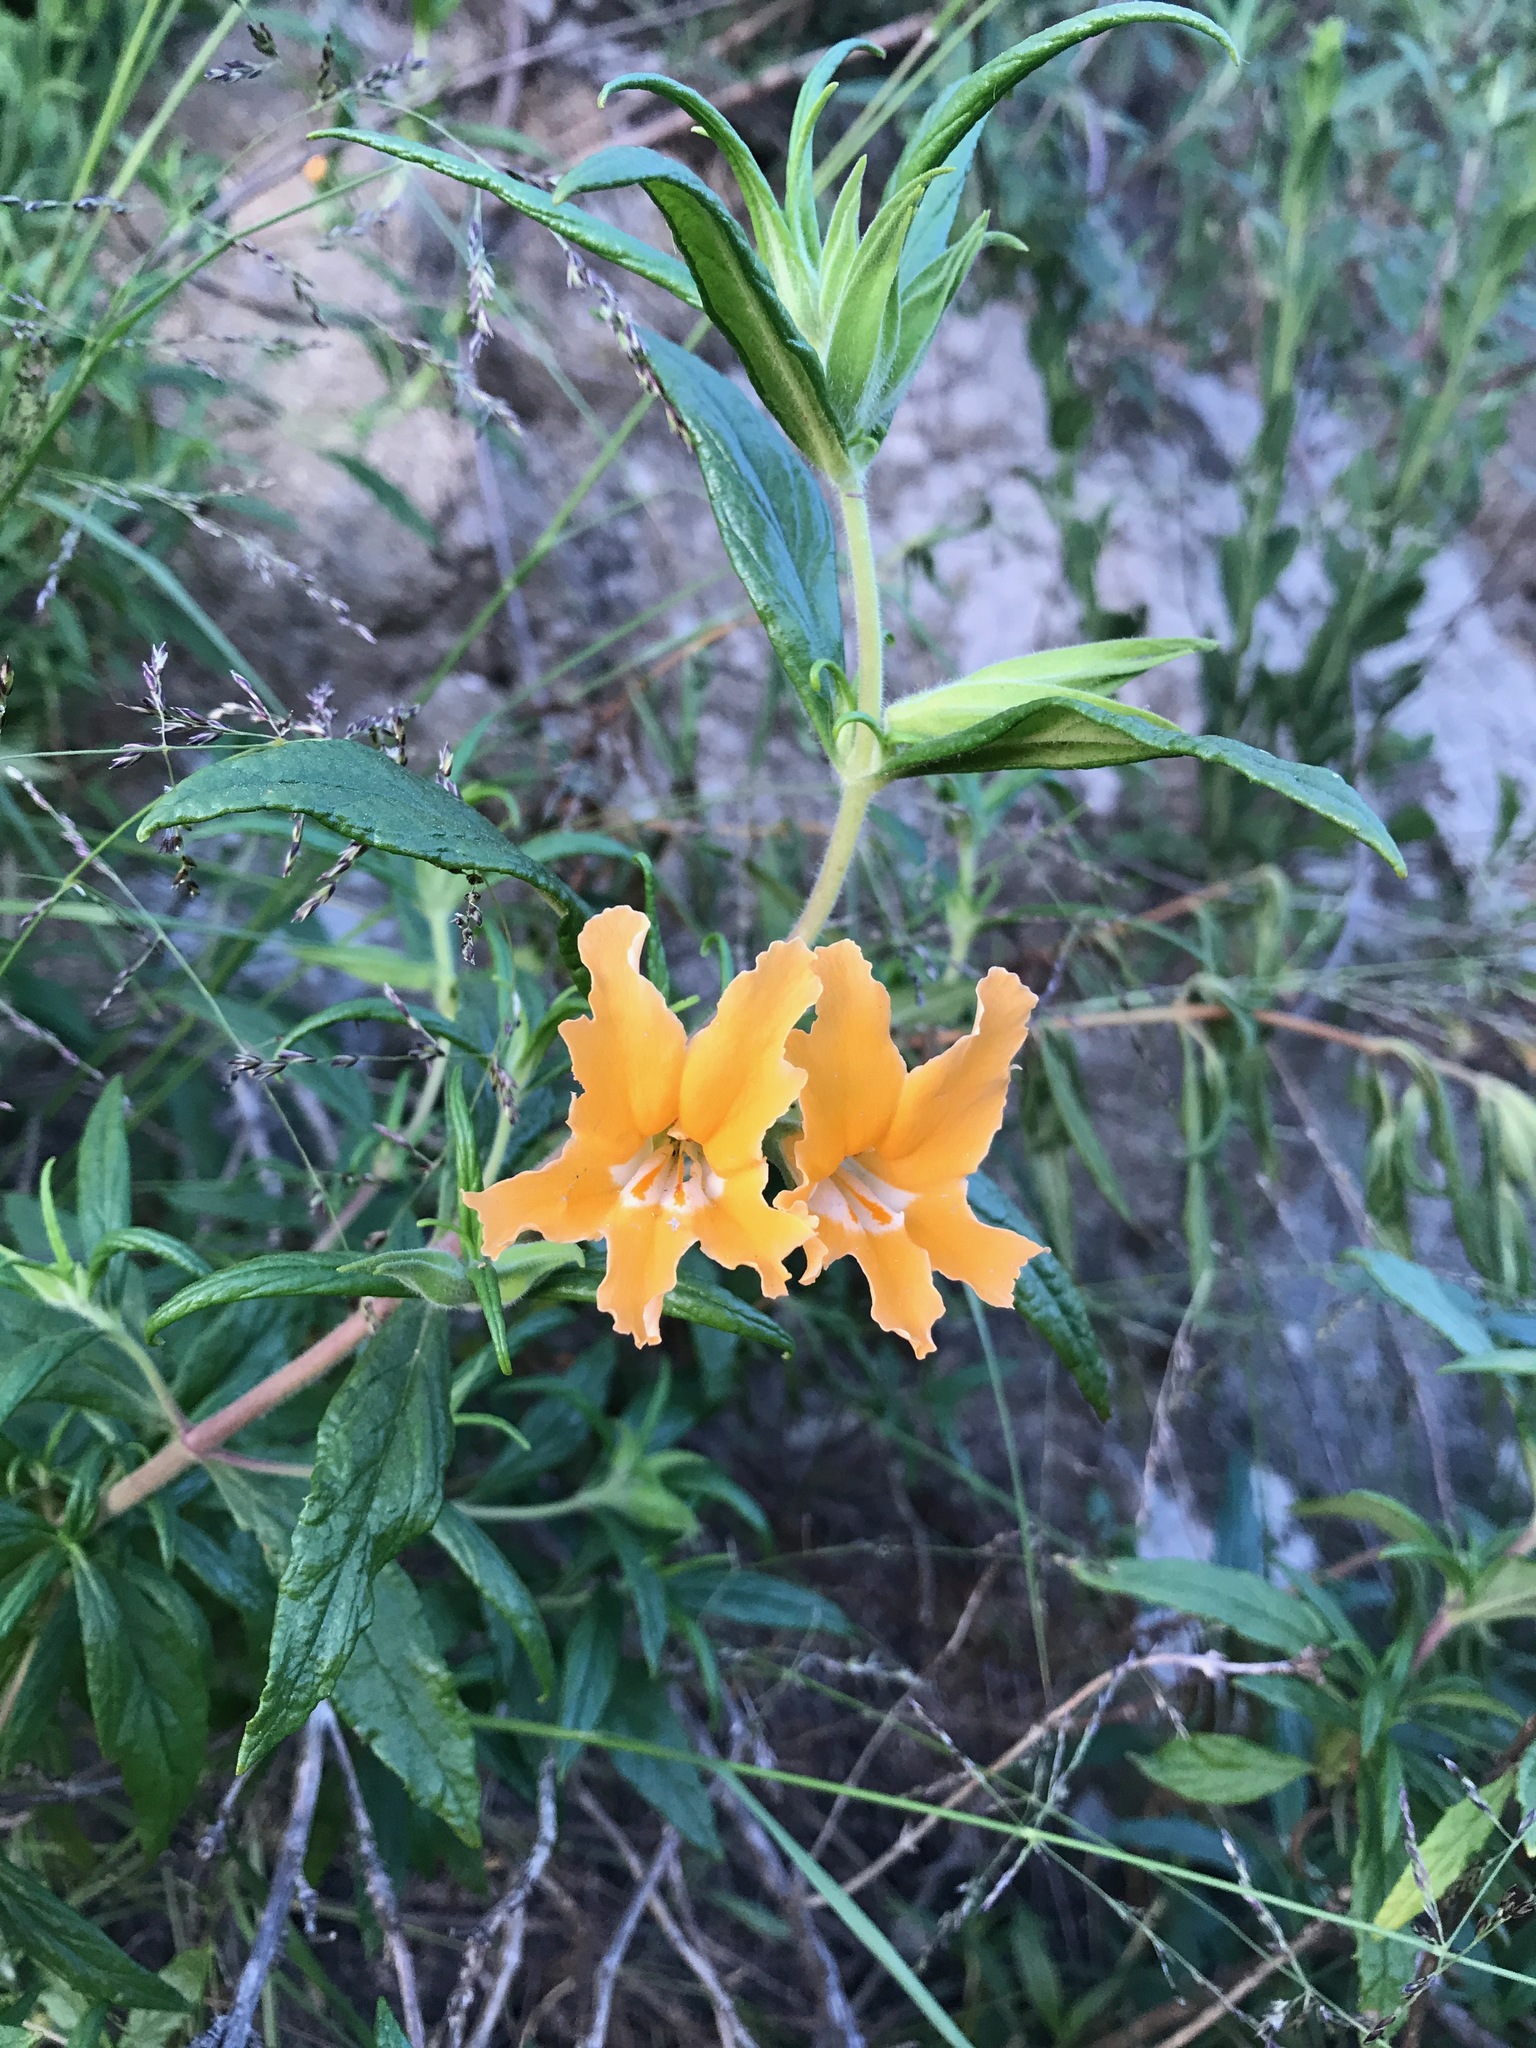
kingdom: Plantae
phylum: Tracheophyta
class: Magnoliopsida
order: Lamiales
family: Phrymaceae
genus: Diplacus
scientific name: Diplacus longiflorus
